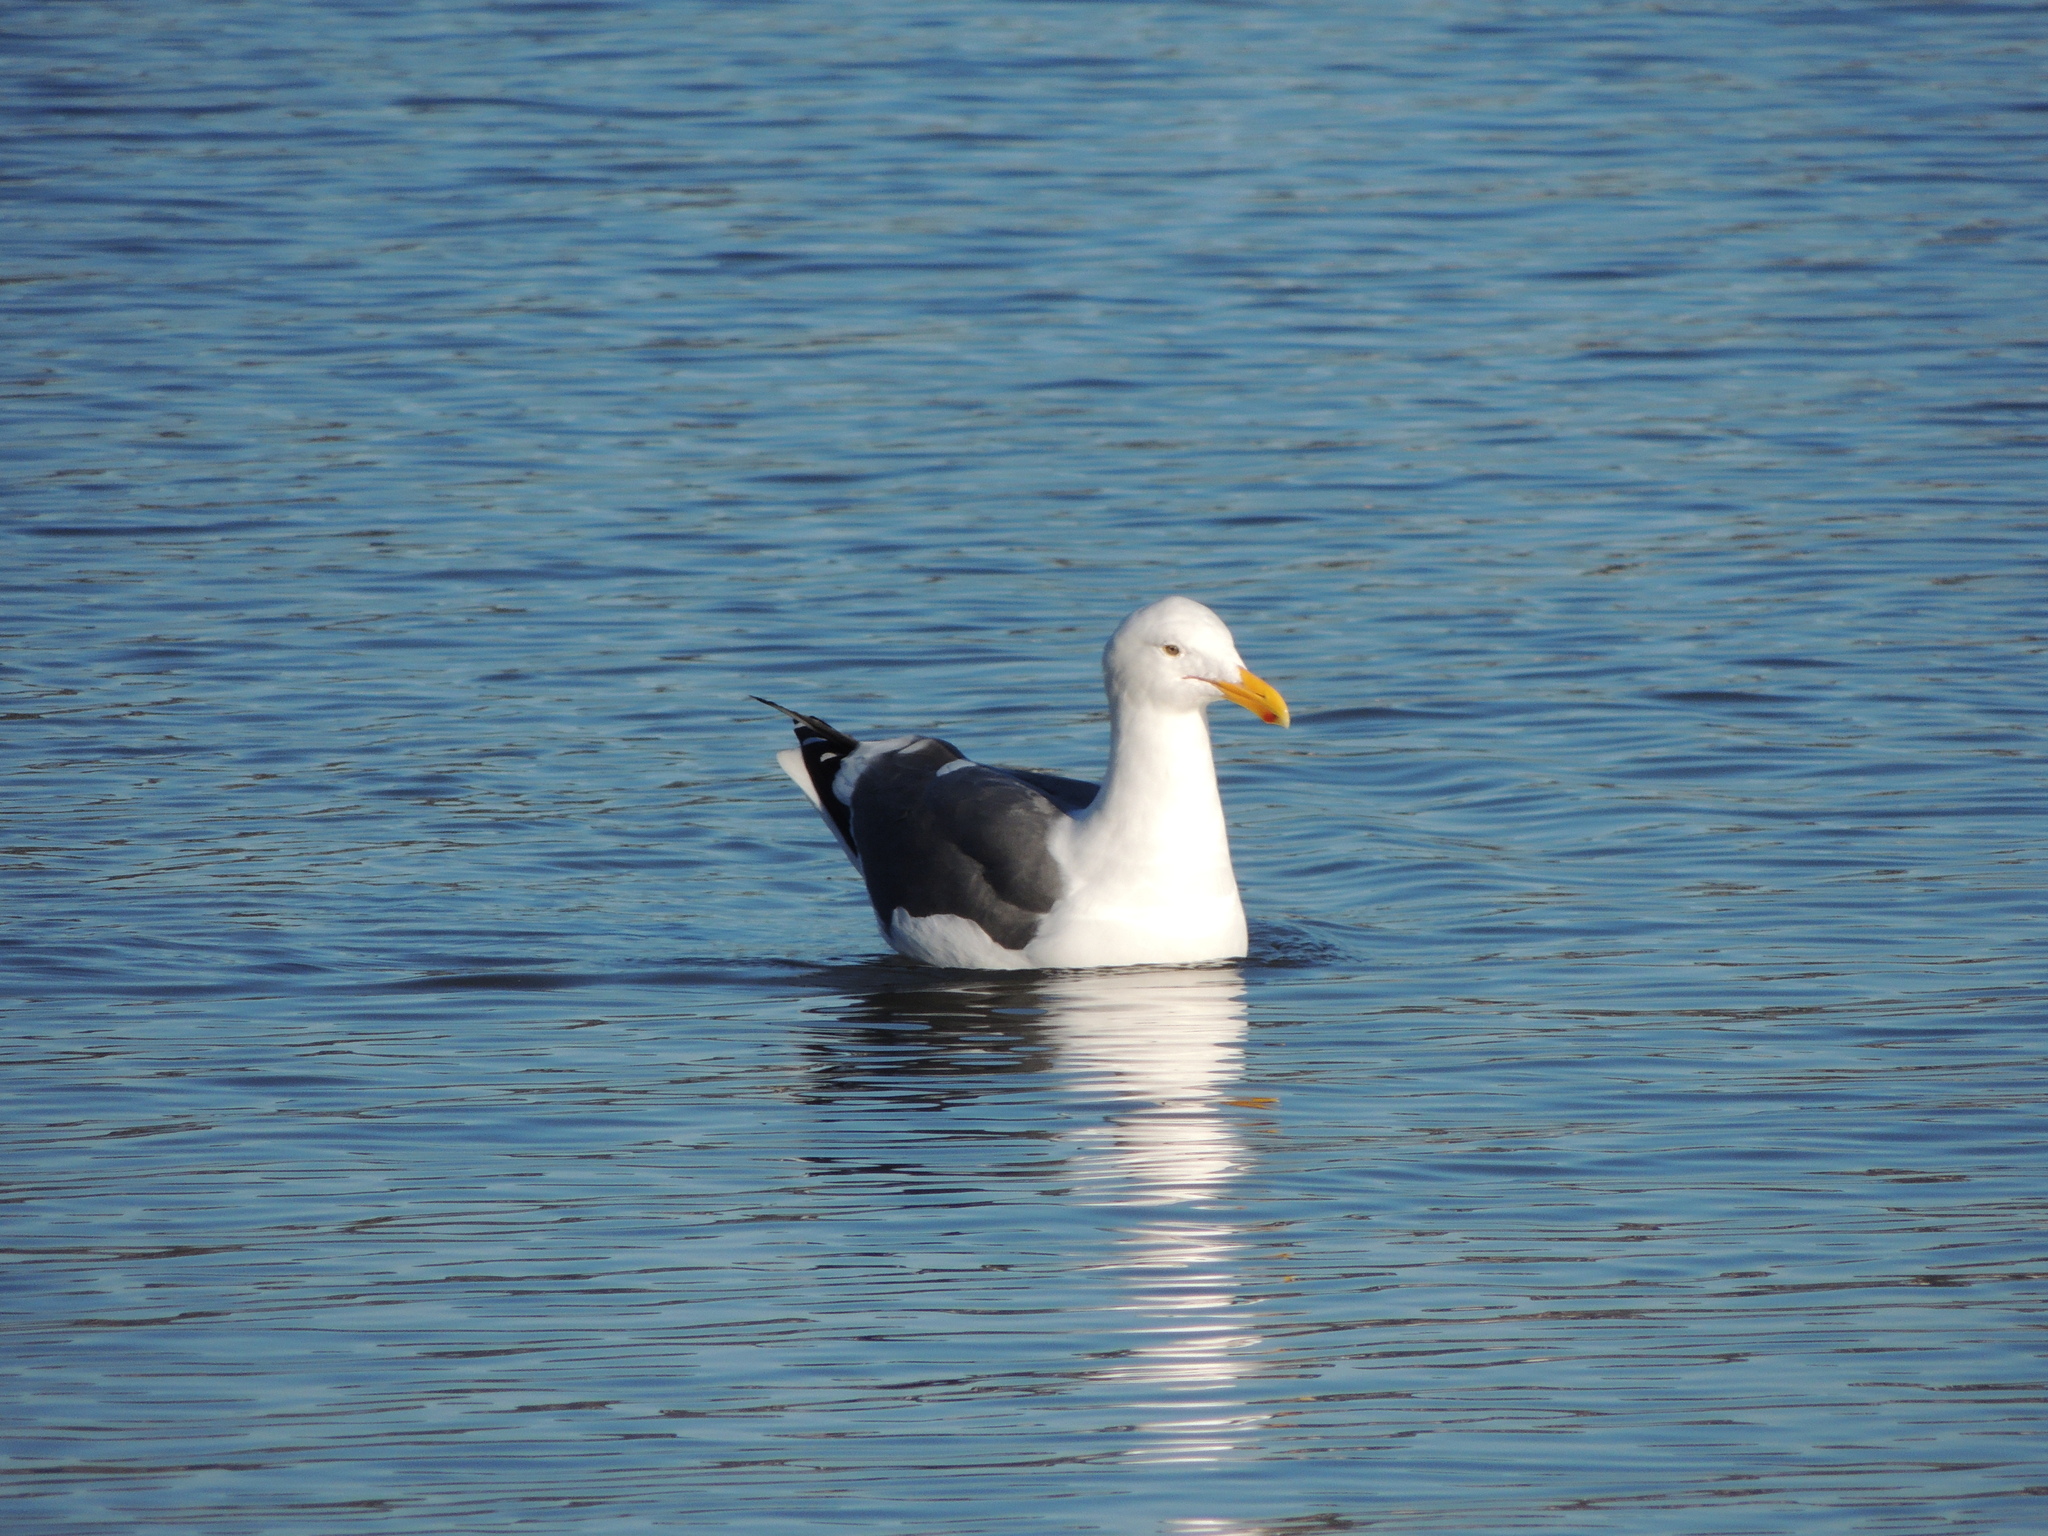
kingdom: Animalia
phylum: Chordata
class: Aves
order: Charadriiformes
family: Laridae
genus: Larus
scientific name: Larus occidentalis
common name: Western gull
